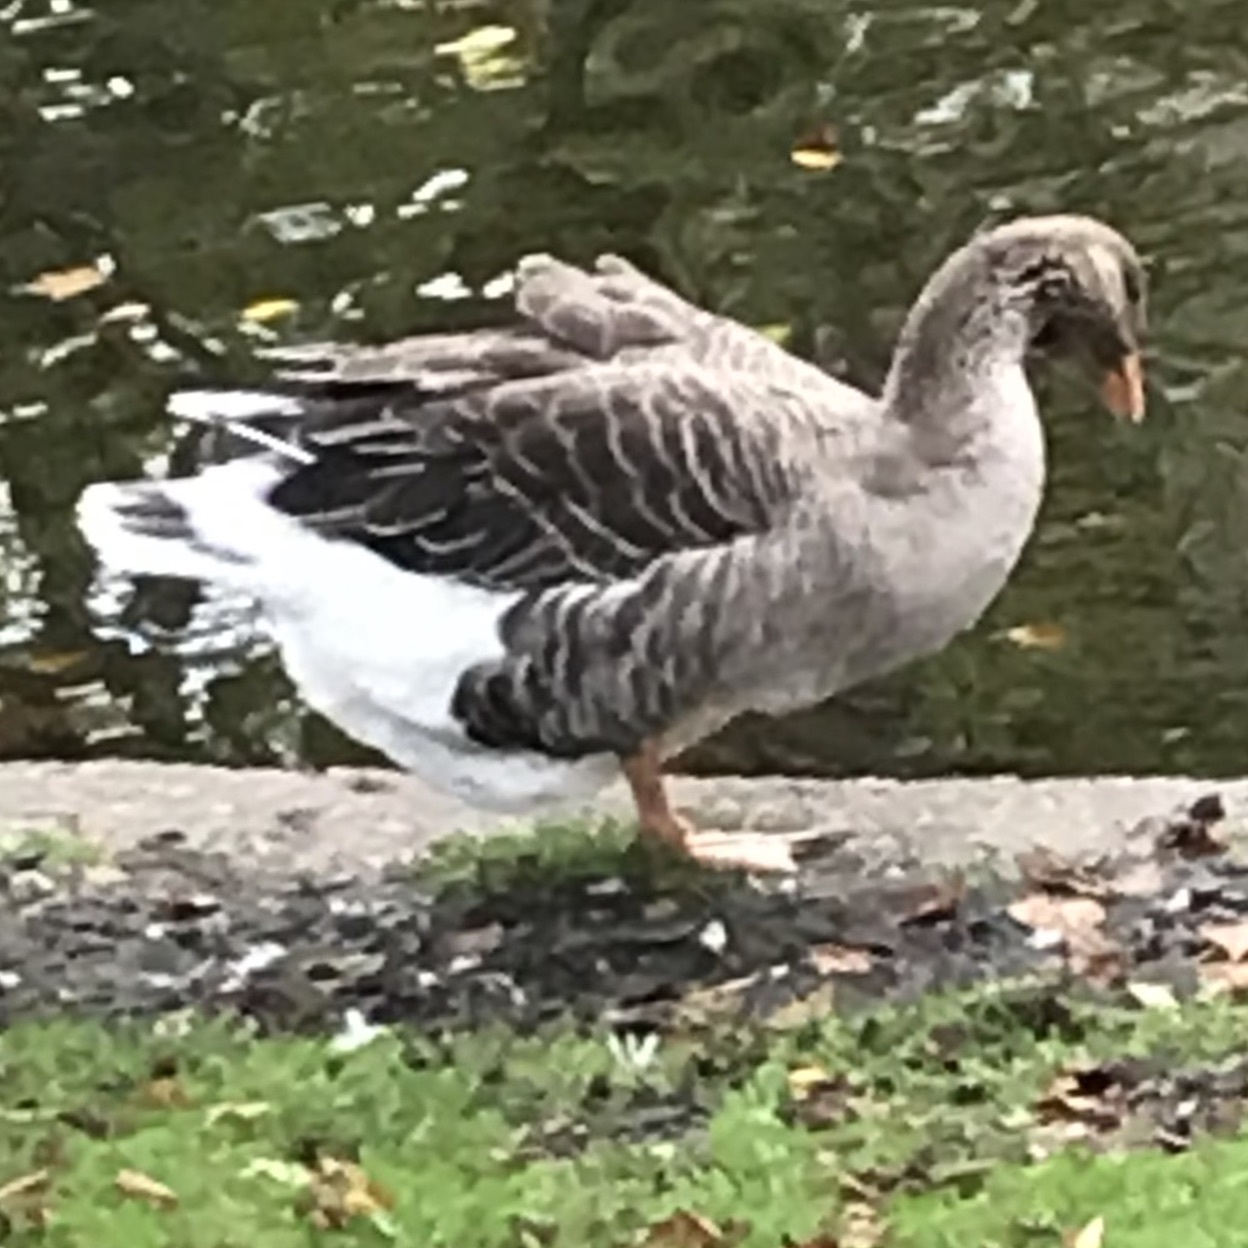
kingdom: Animalia
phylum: Chordata
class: Aves
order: Anseriformes
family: Anatidae
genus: Anser
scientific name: Anser anser
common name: Greylag goose
